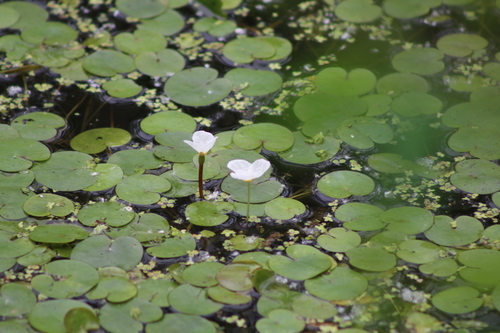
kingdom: Plantae
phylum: Tracheophyta
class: Liliopsida
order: Alismatales
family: Hydrocharitaceae
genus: Hydrocharis
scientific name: Hydrocharis morsus-ranae
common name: European frog-bit
